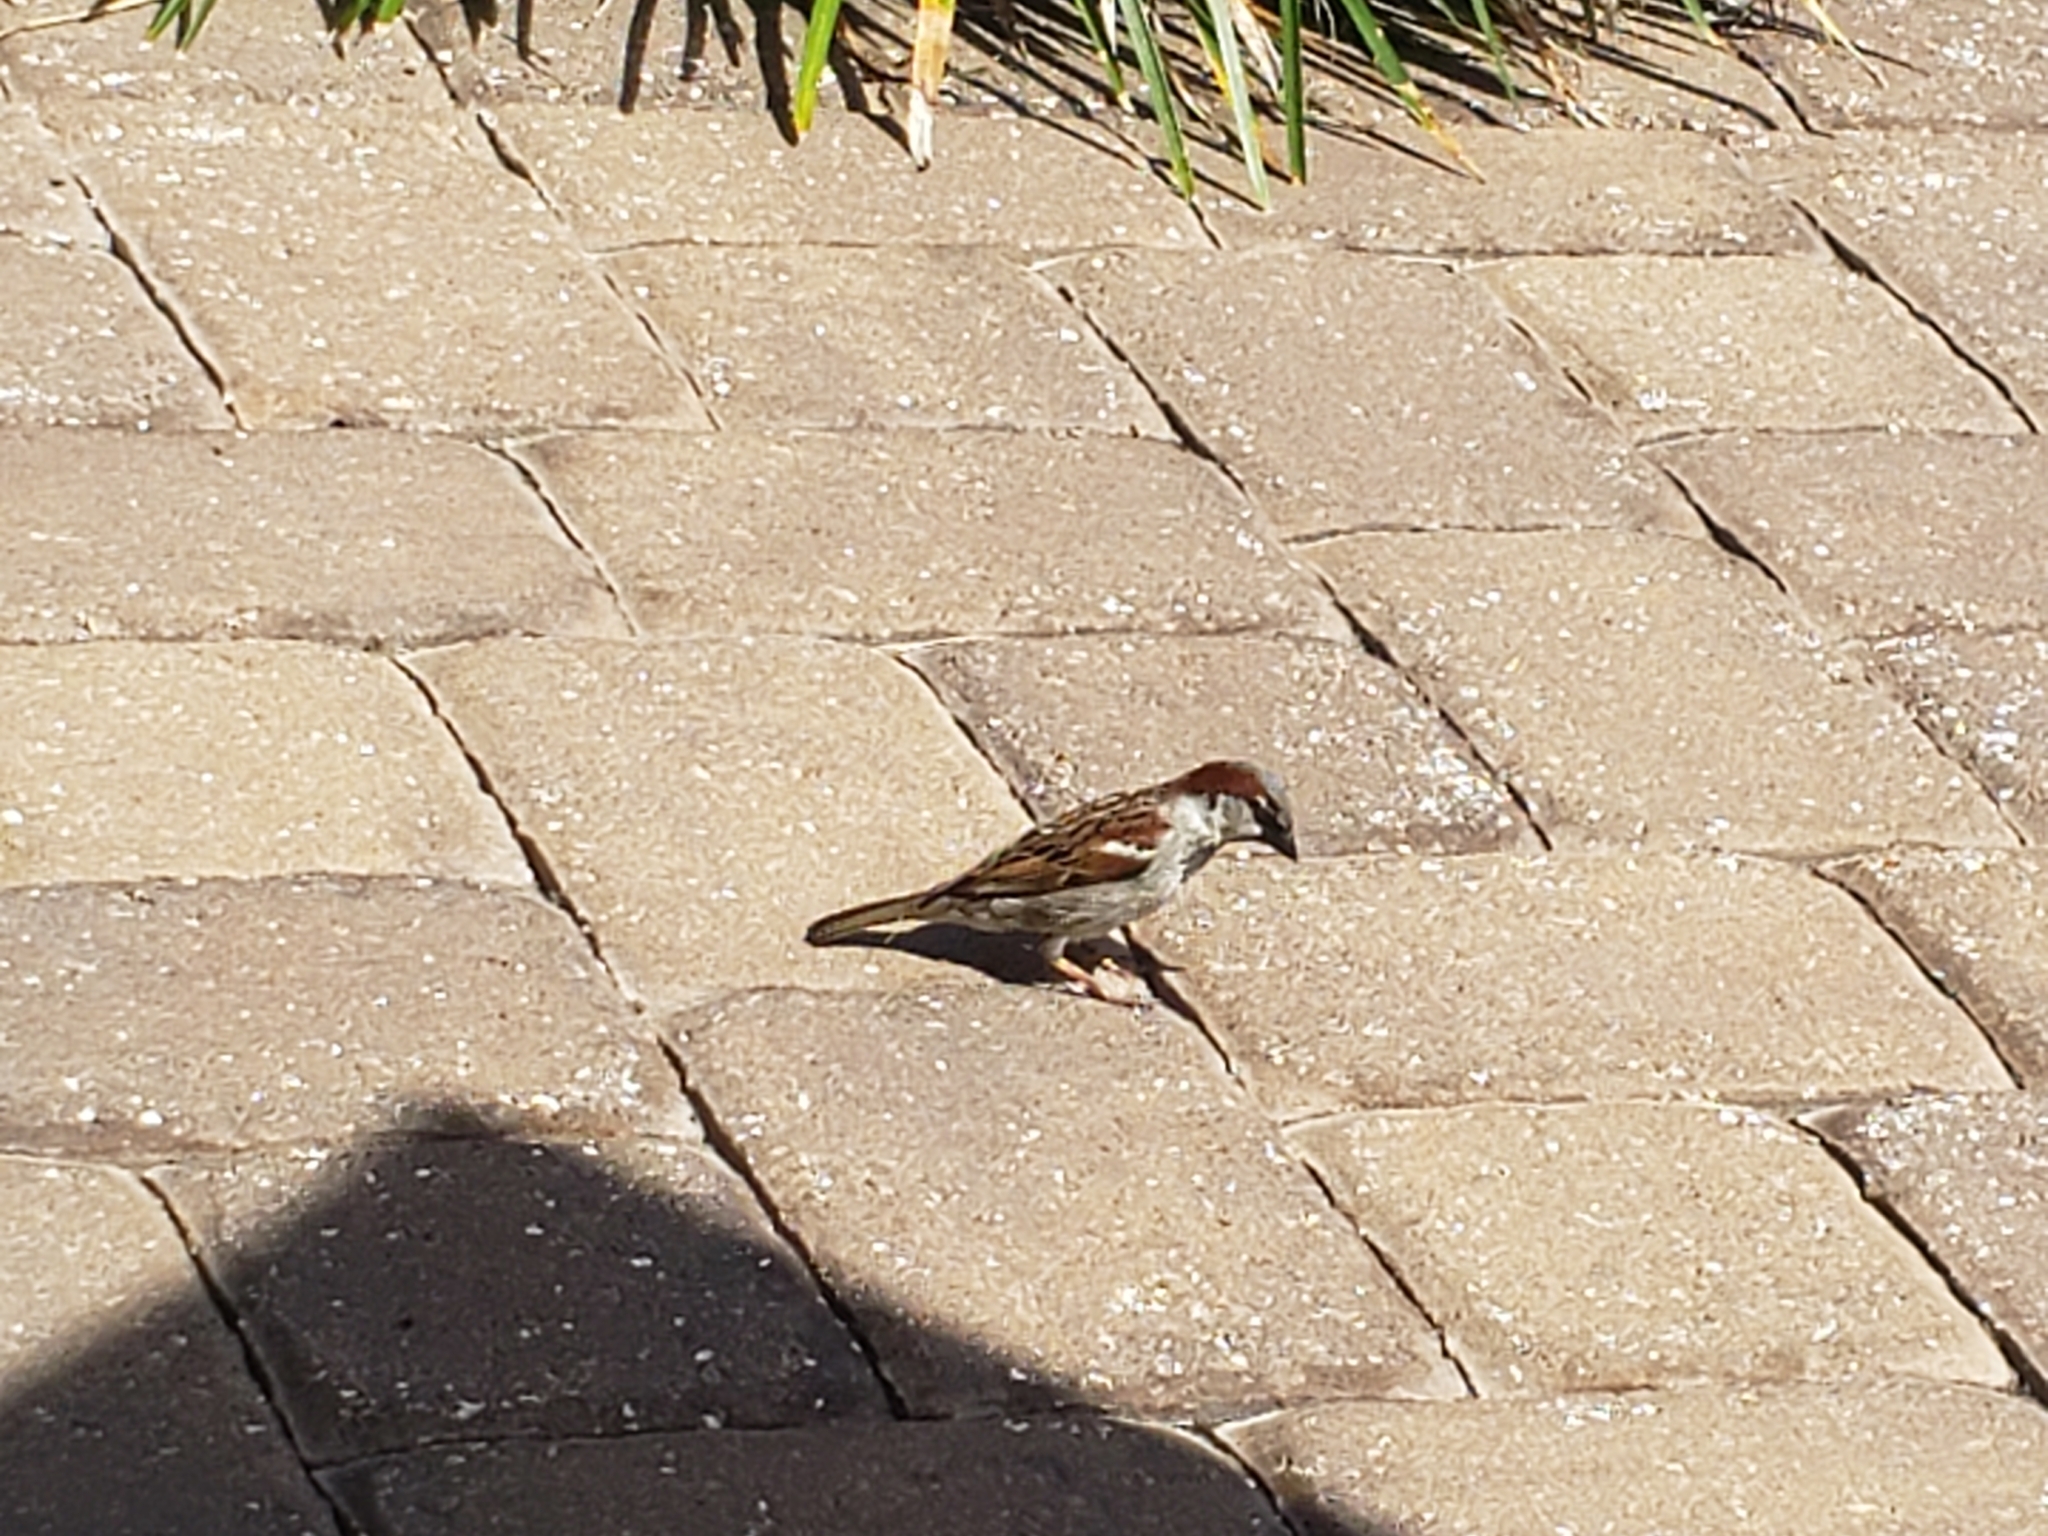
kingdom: Animalia
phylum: Chordata
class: Aves
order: Passeriformes
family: Passeridae
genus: Passer
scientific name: Passer domesticus
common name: House sparrow
